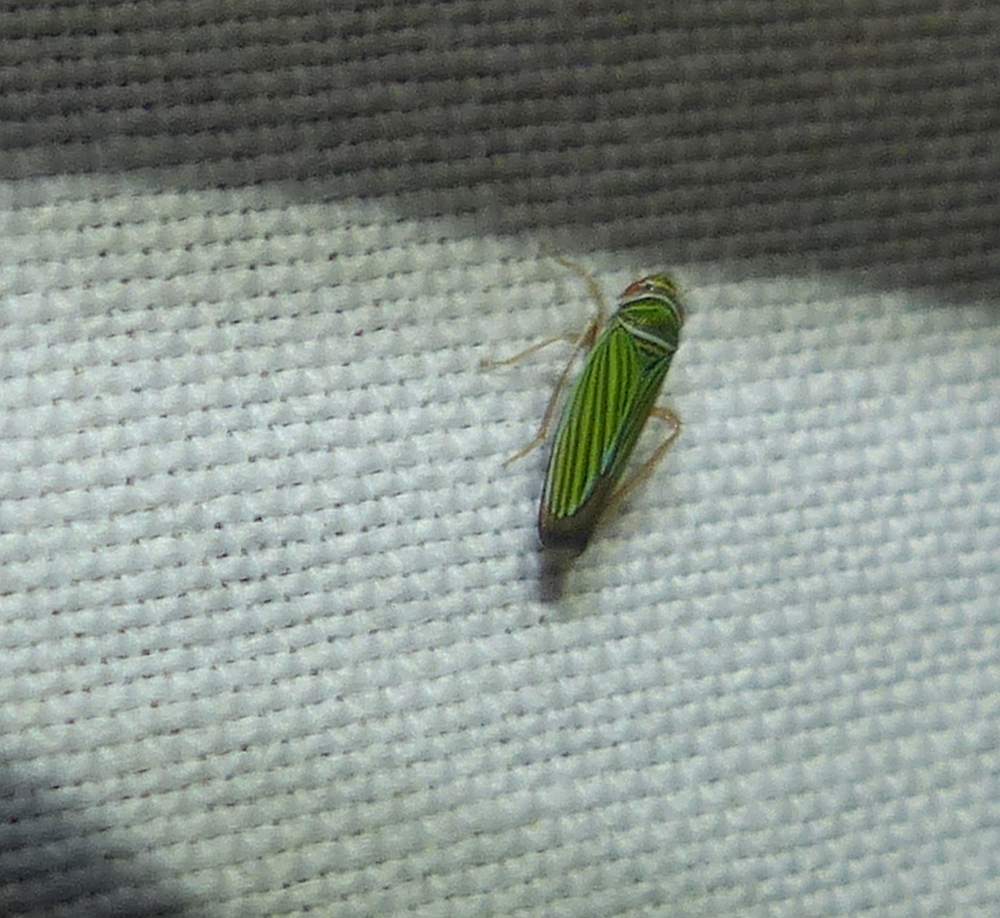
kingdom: Animalia
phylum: Arthropoda
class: Insecta
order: Hemiptera
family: Cicadellidae
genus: Tylozygus
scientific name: Tylozygus bifidus
